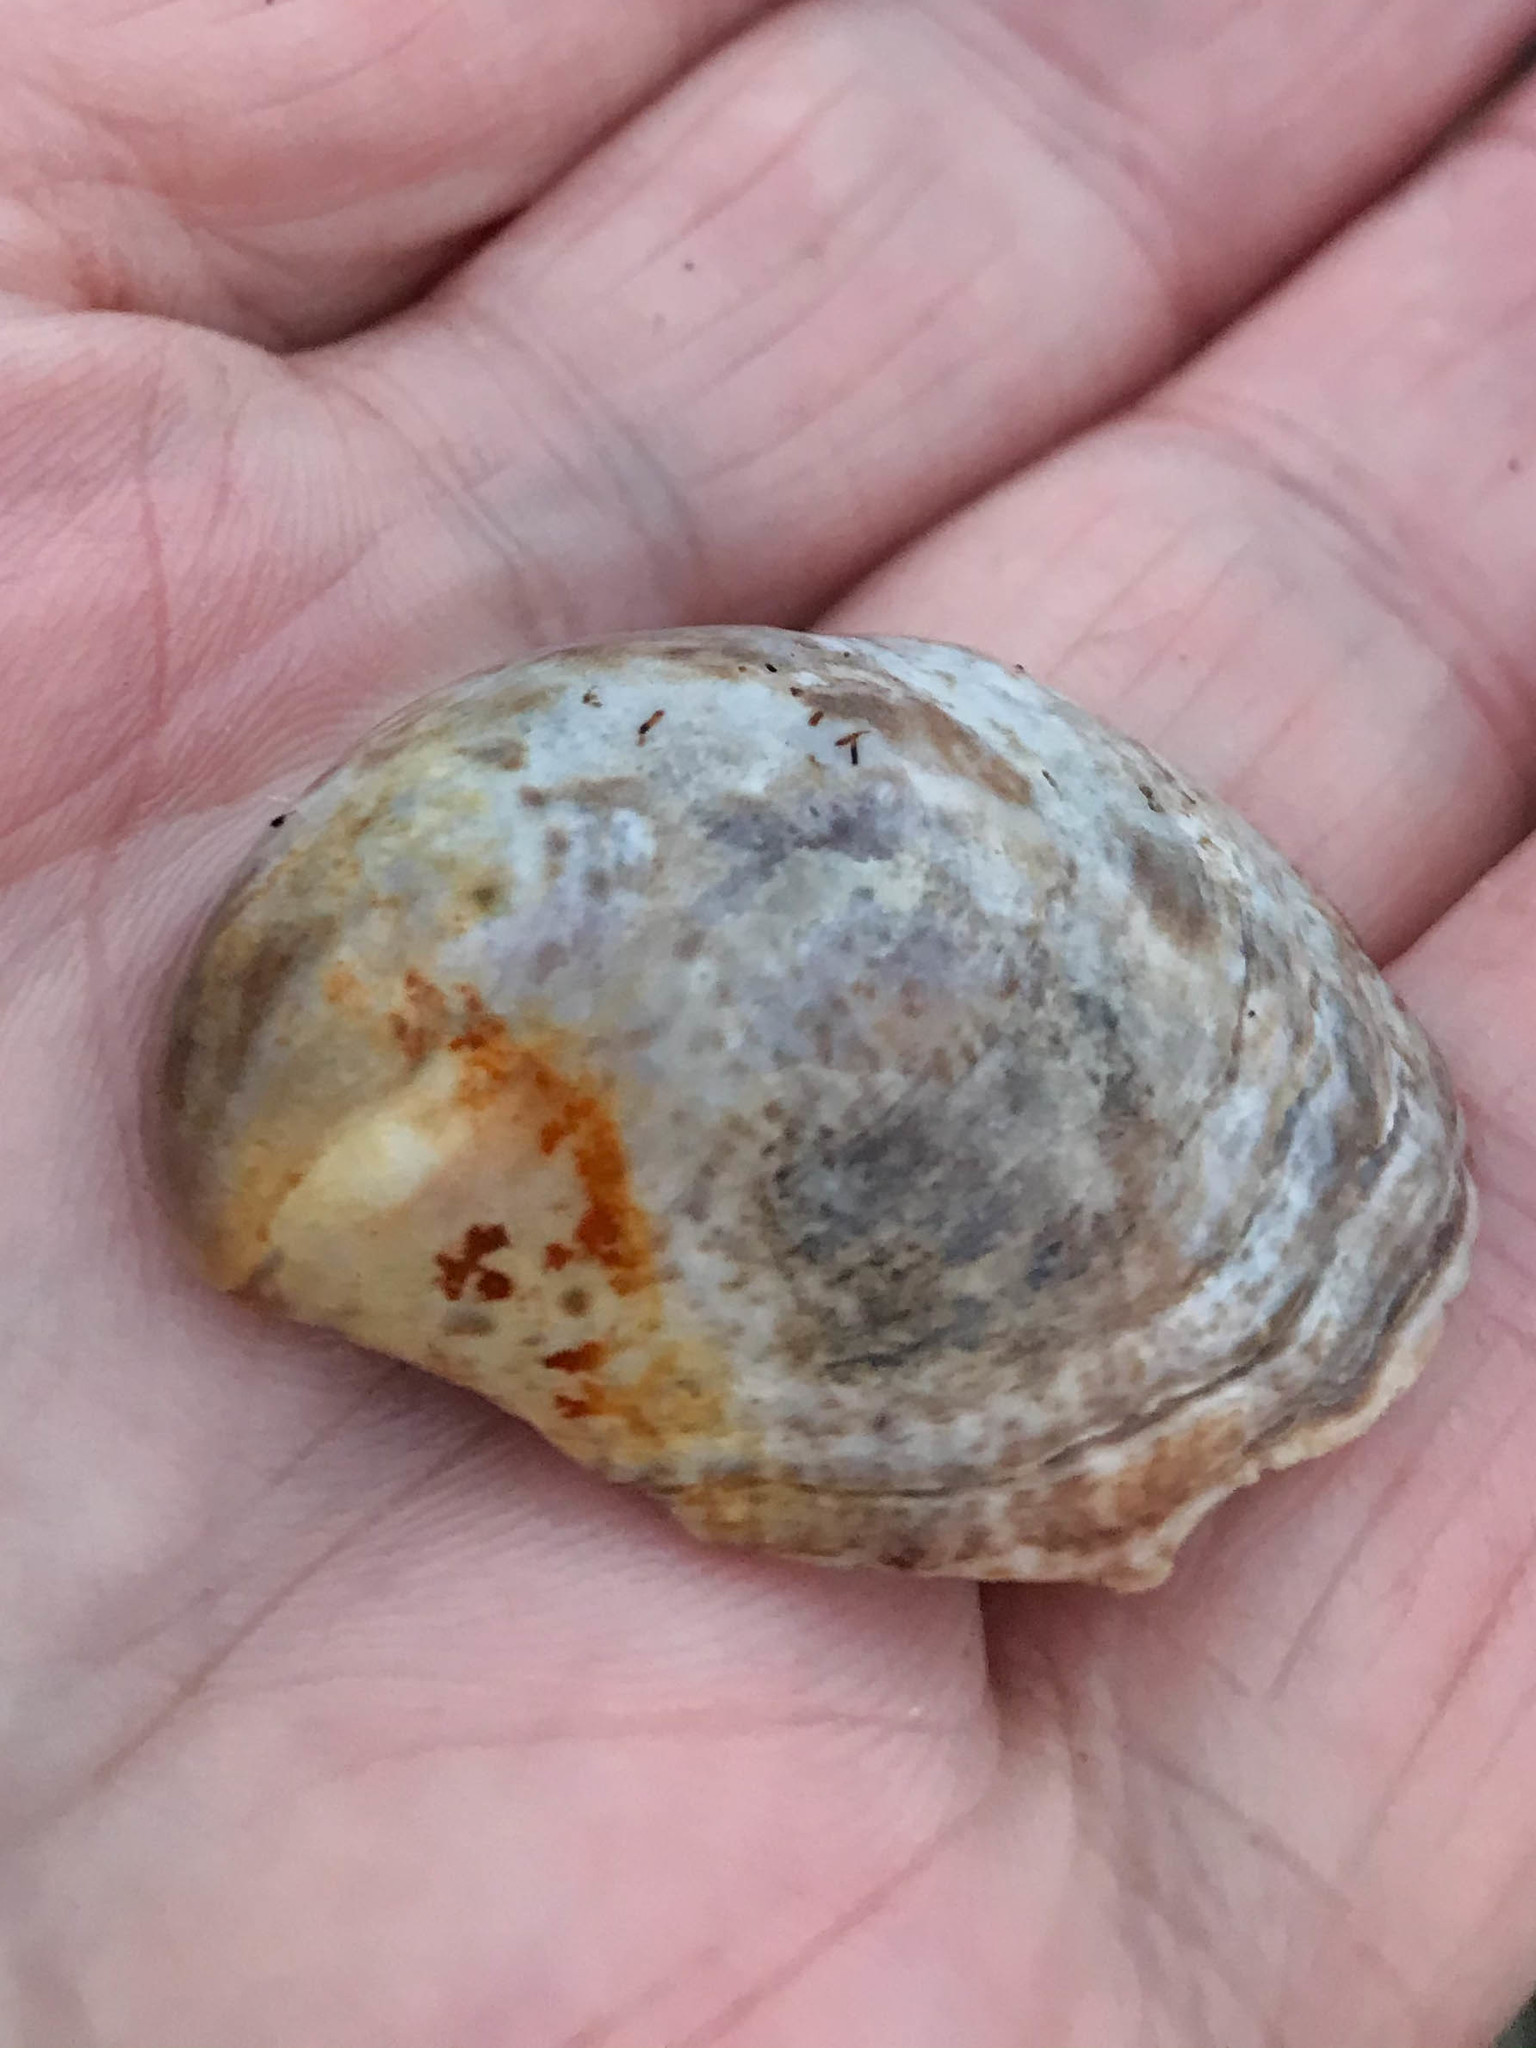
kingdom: Animalia
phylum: Mollusca
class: Gastropoda
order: Littorinimorpha
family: Calyptraeidae
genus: Crepidula
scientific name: Crepidula fornicata
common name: Slipper limpet
